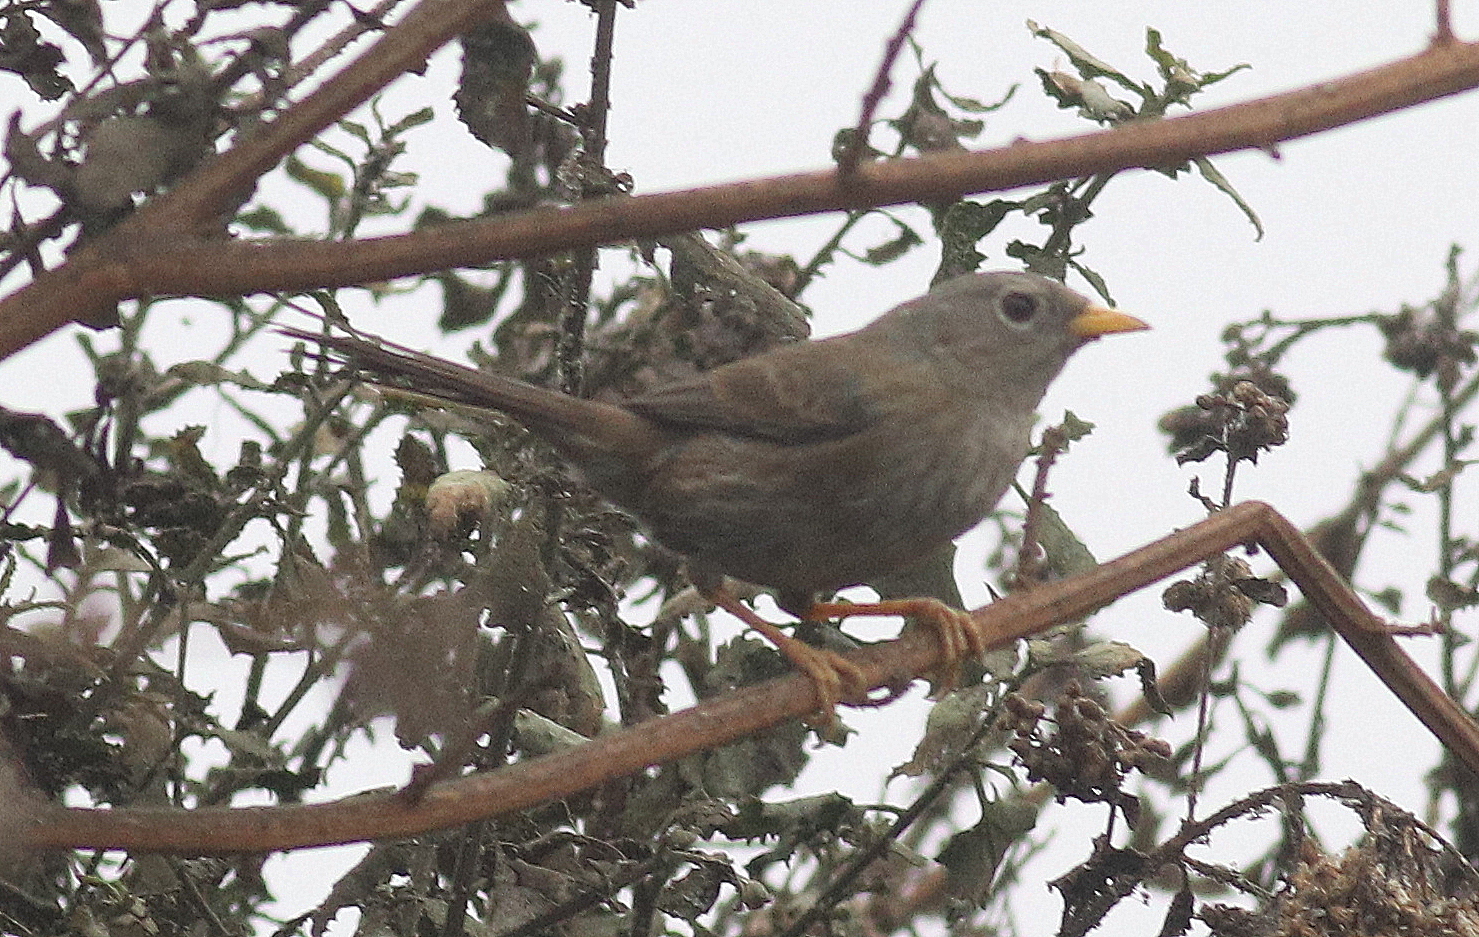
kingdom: Animalia
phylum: Chordata
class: Aves
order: Passeriformes
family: Thraupidae
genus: Xenospingus
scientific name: Xenospingus concolor
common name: Slender-billed finch
